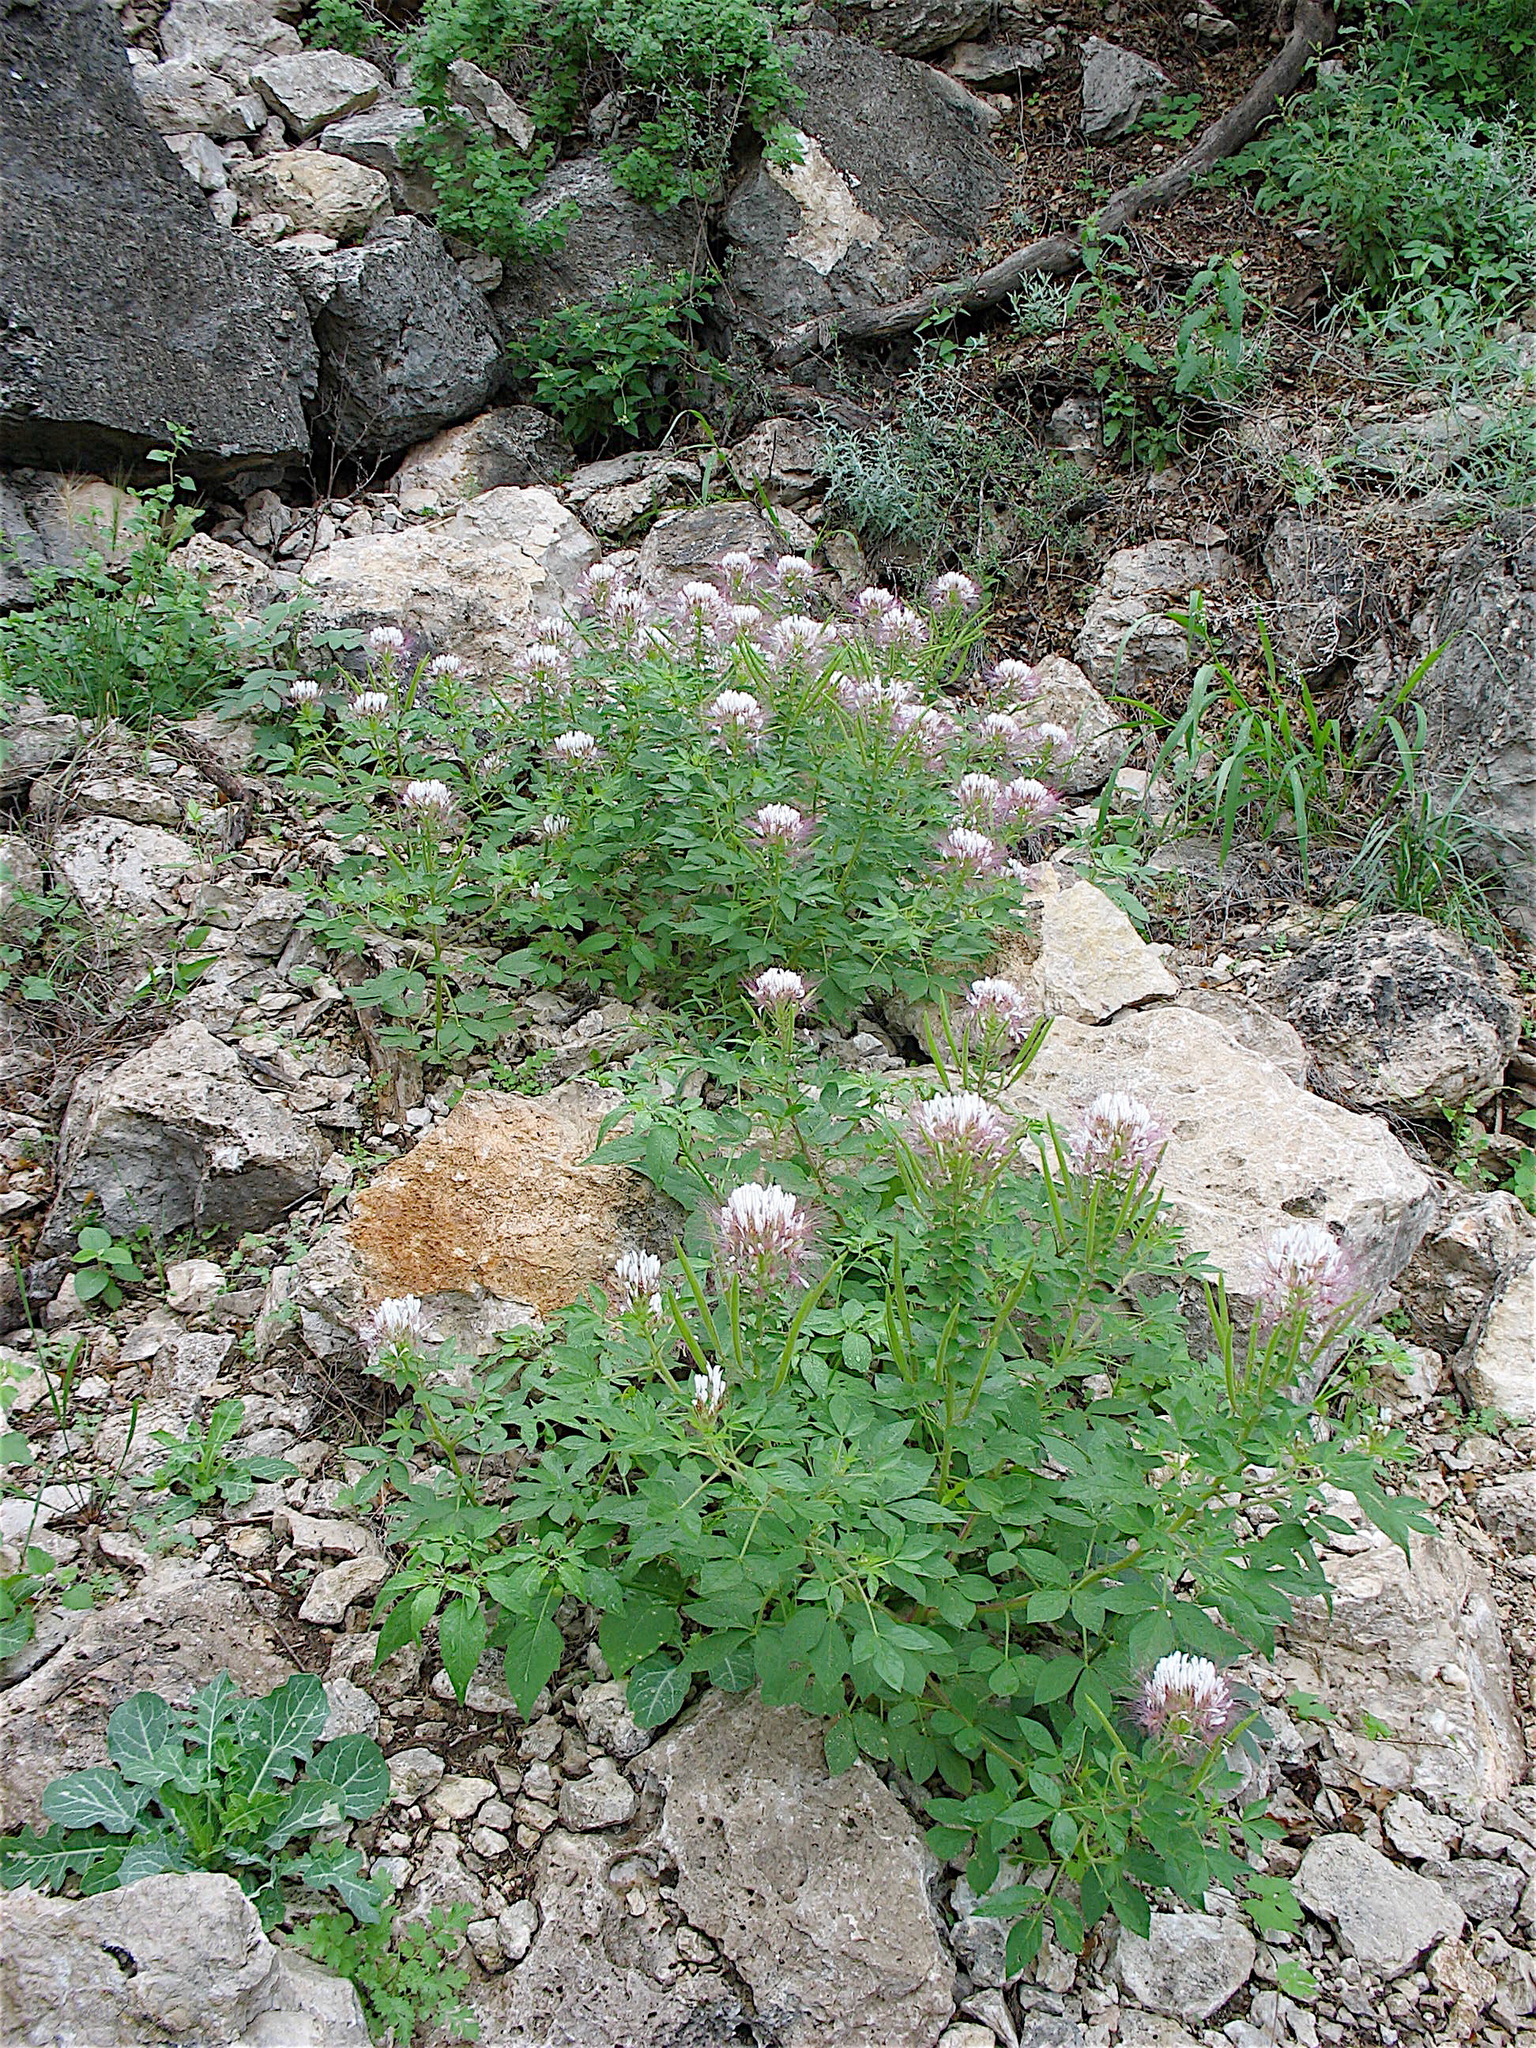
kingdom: Plantae
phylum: Tracheophyta
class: Magnoliopsida
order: Brassicales
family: Cleomaceae
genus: Polanisia
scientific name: Polanisia uniglandulosa
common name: Mexican clammyweed
